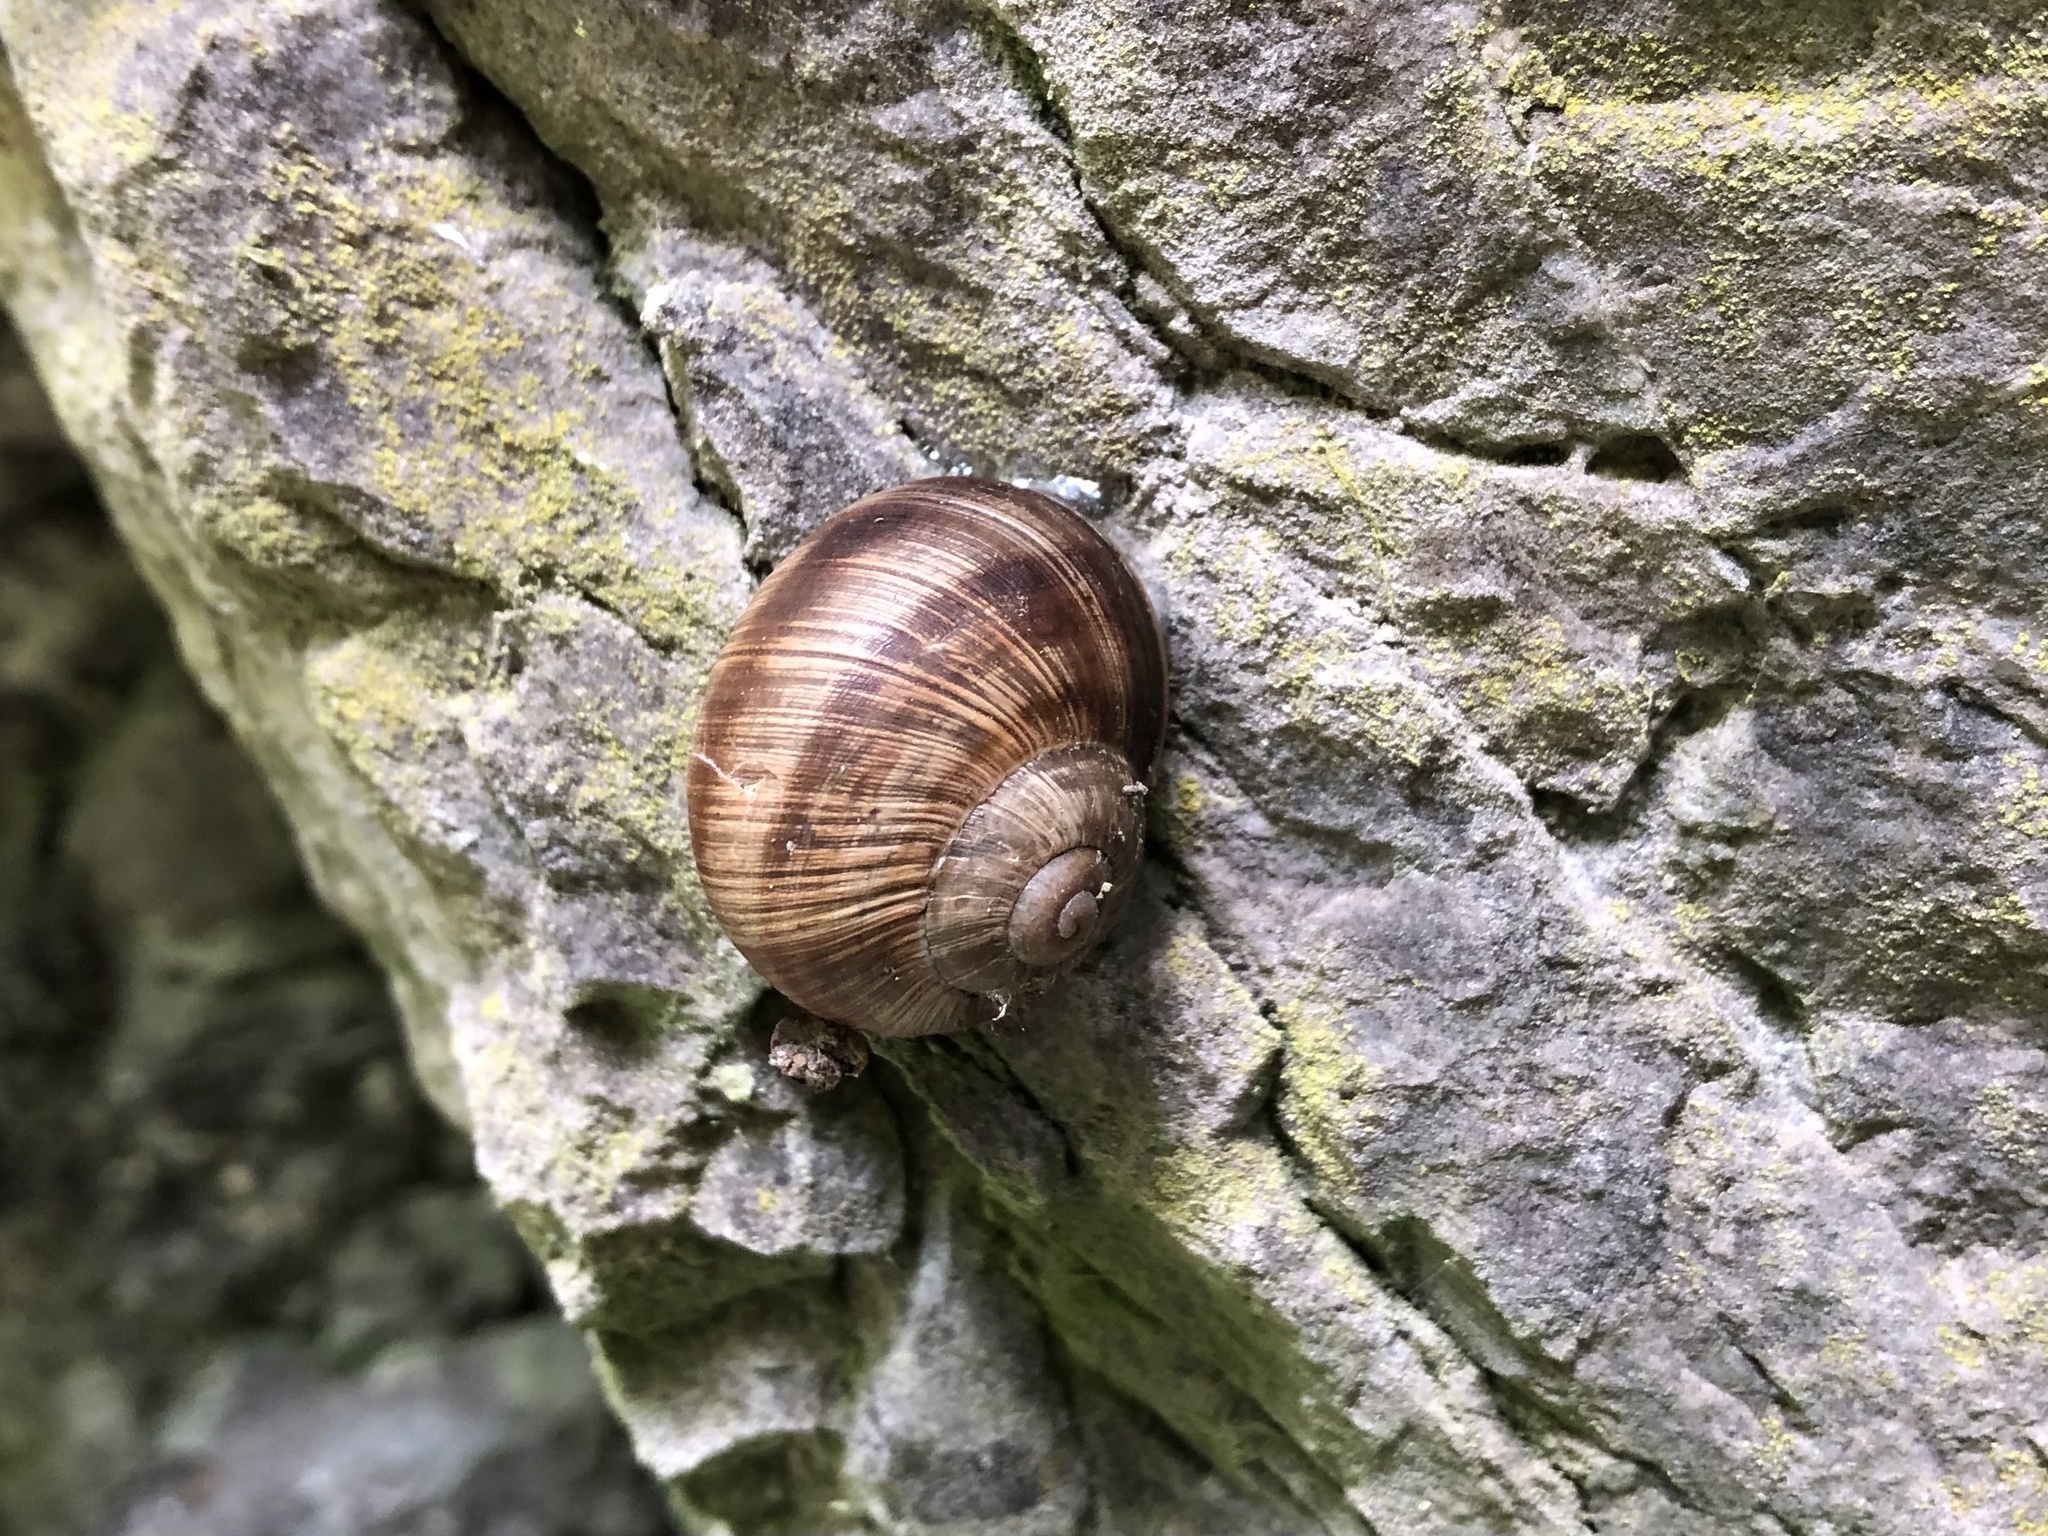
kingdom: Animalia
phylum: Mollusca
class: Gastropoda
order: Stylommatophora
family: Helicidae
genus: Helix
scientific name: Helix pomatia
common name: Roman snail
